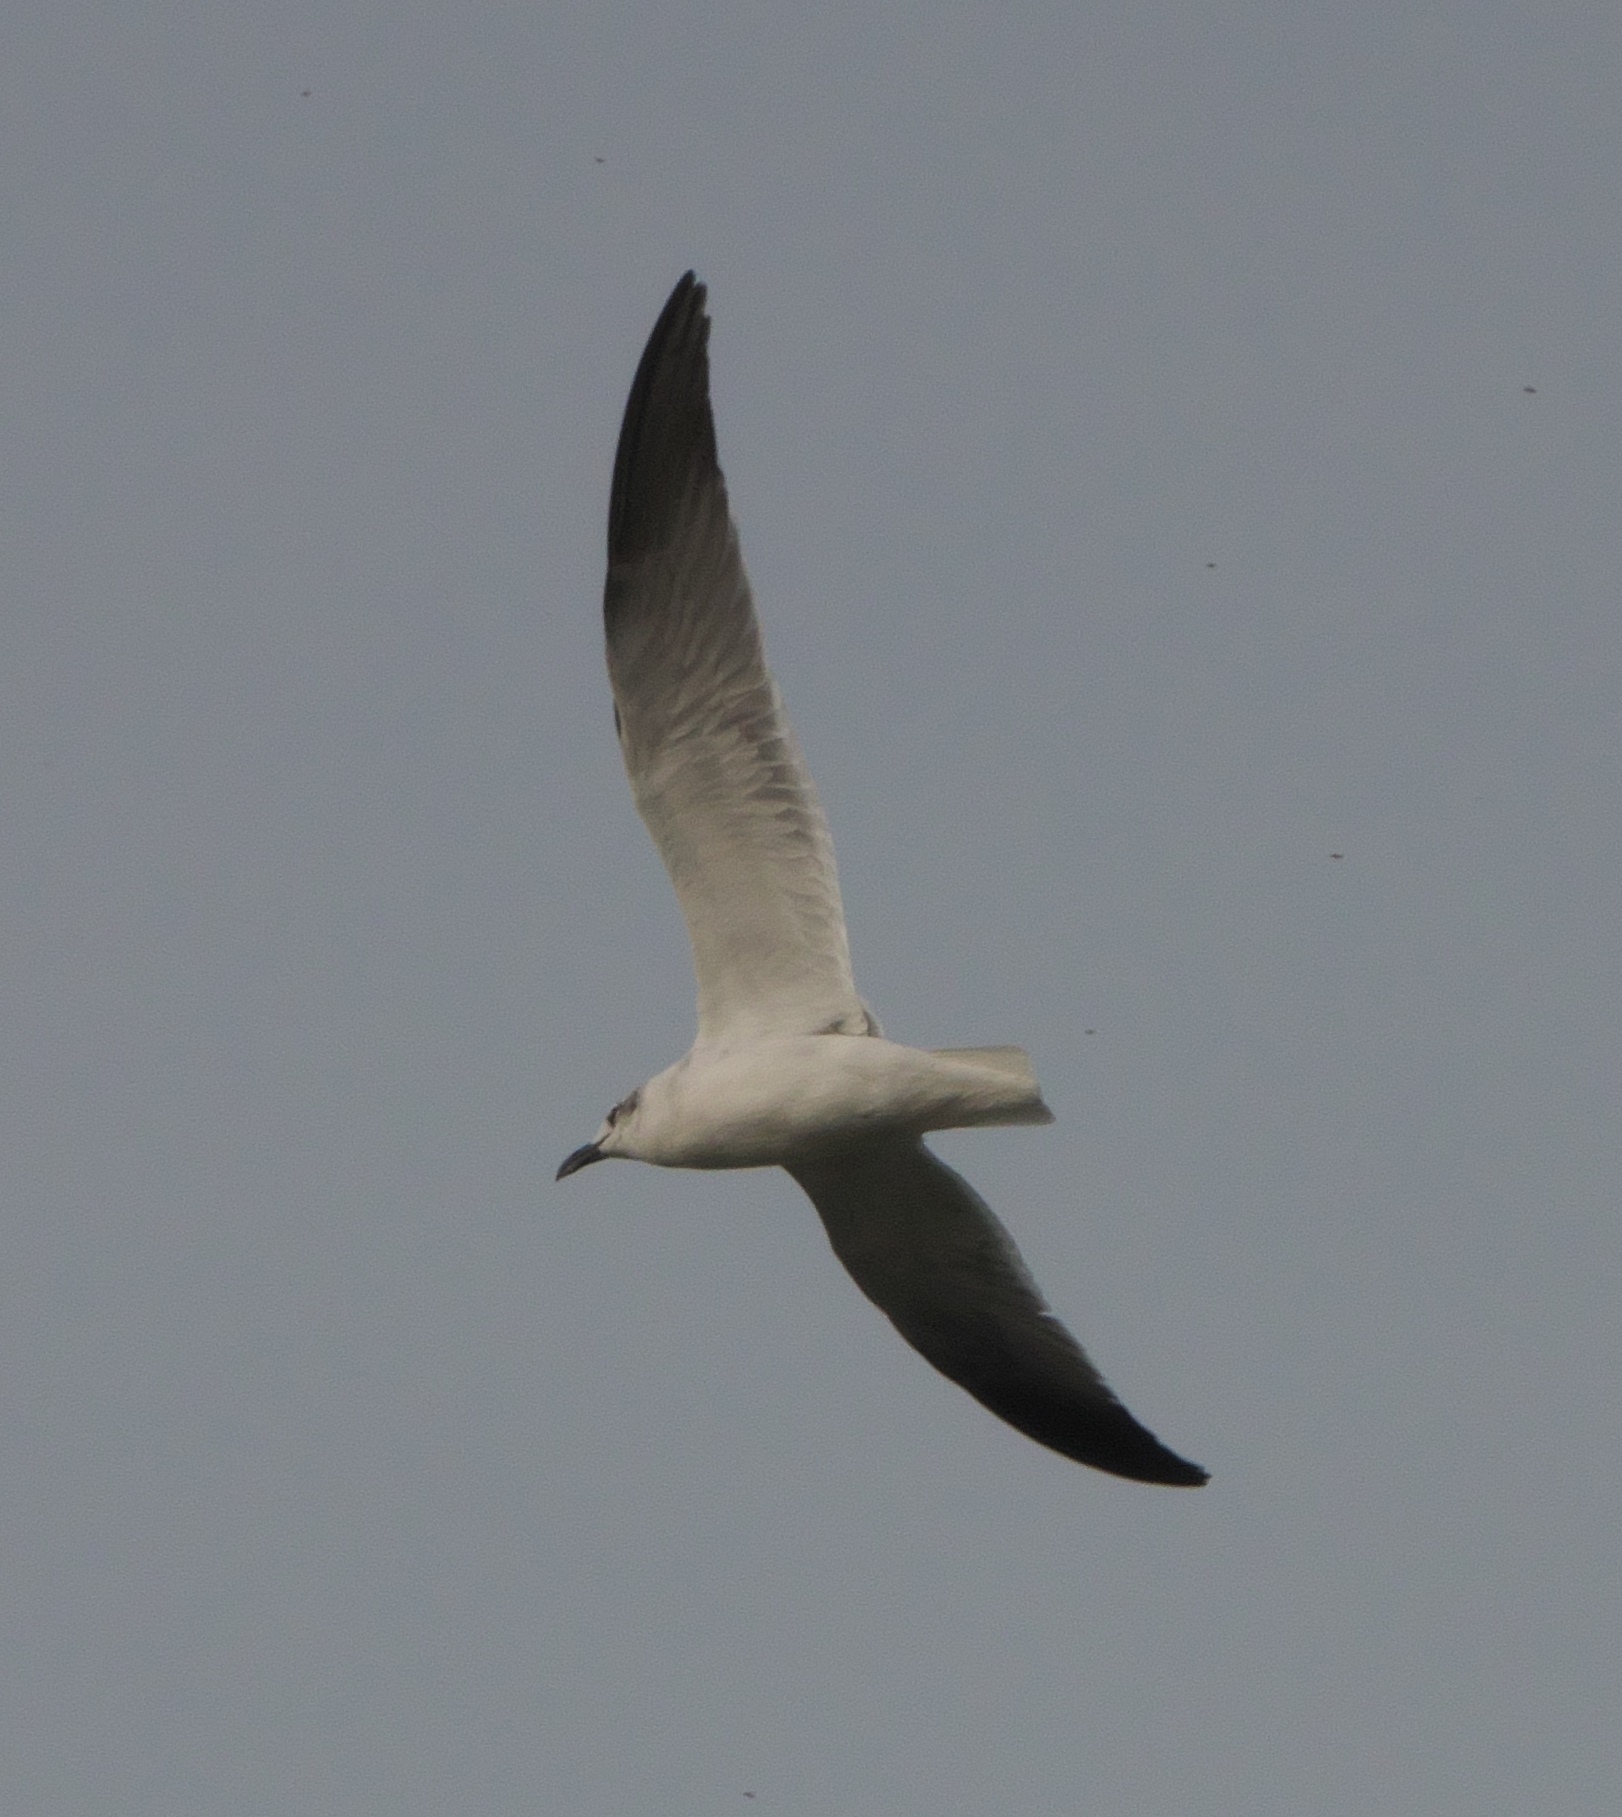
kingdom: Animalia
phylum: Chordata
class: Aves
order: Charadriiformes
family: Laridae
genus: Leucophaeus
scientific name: Leucophaeus atricilla
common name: Laughing gull
